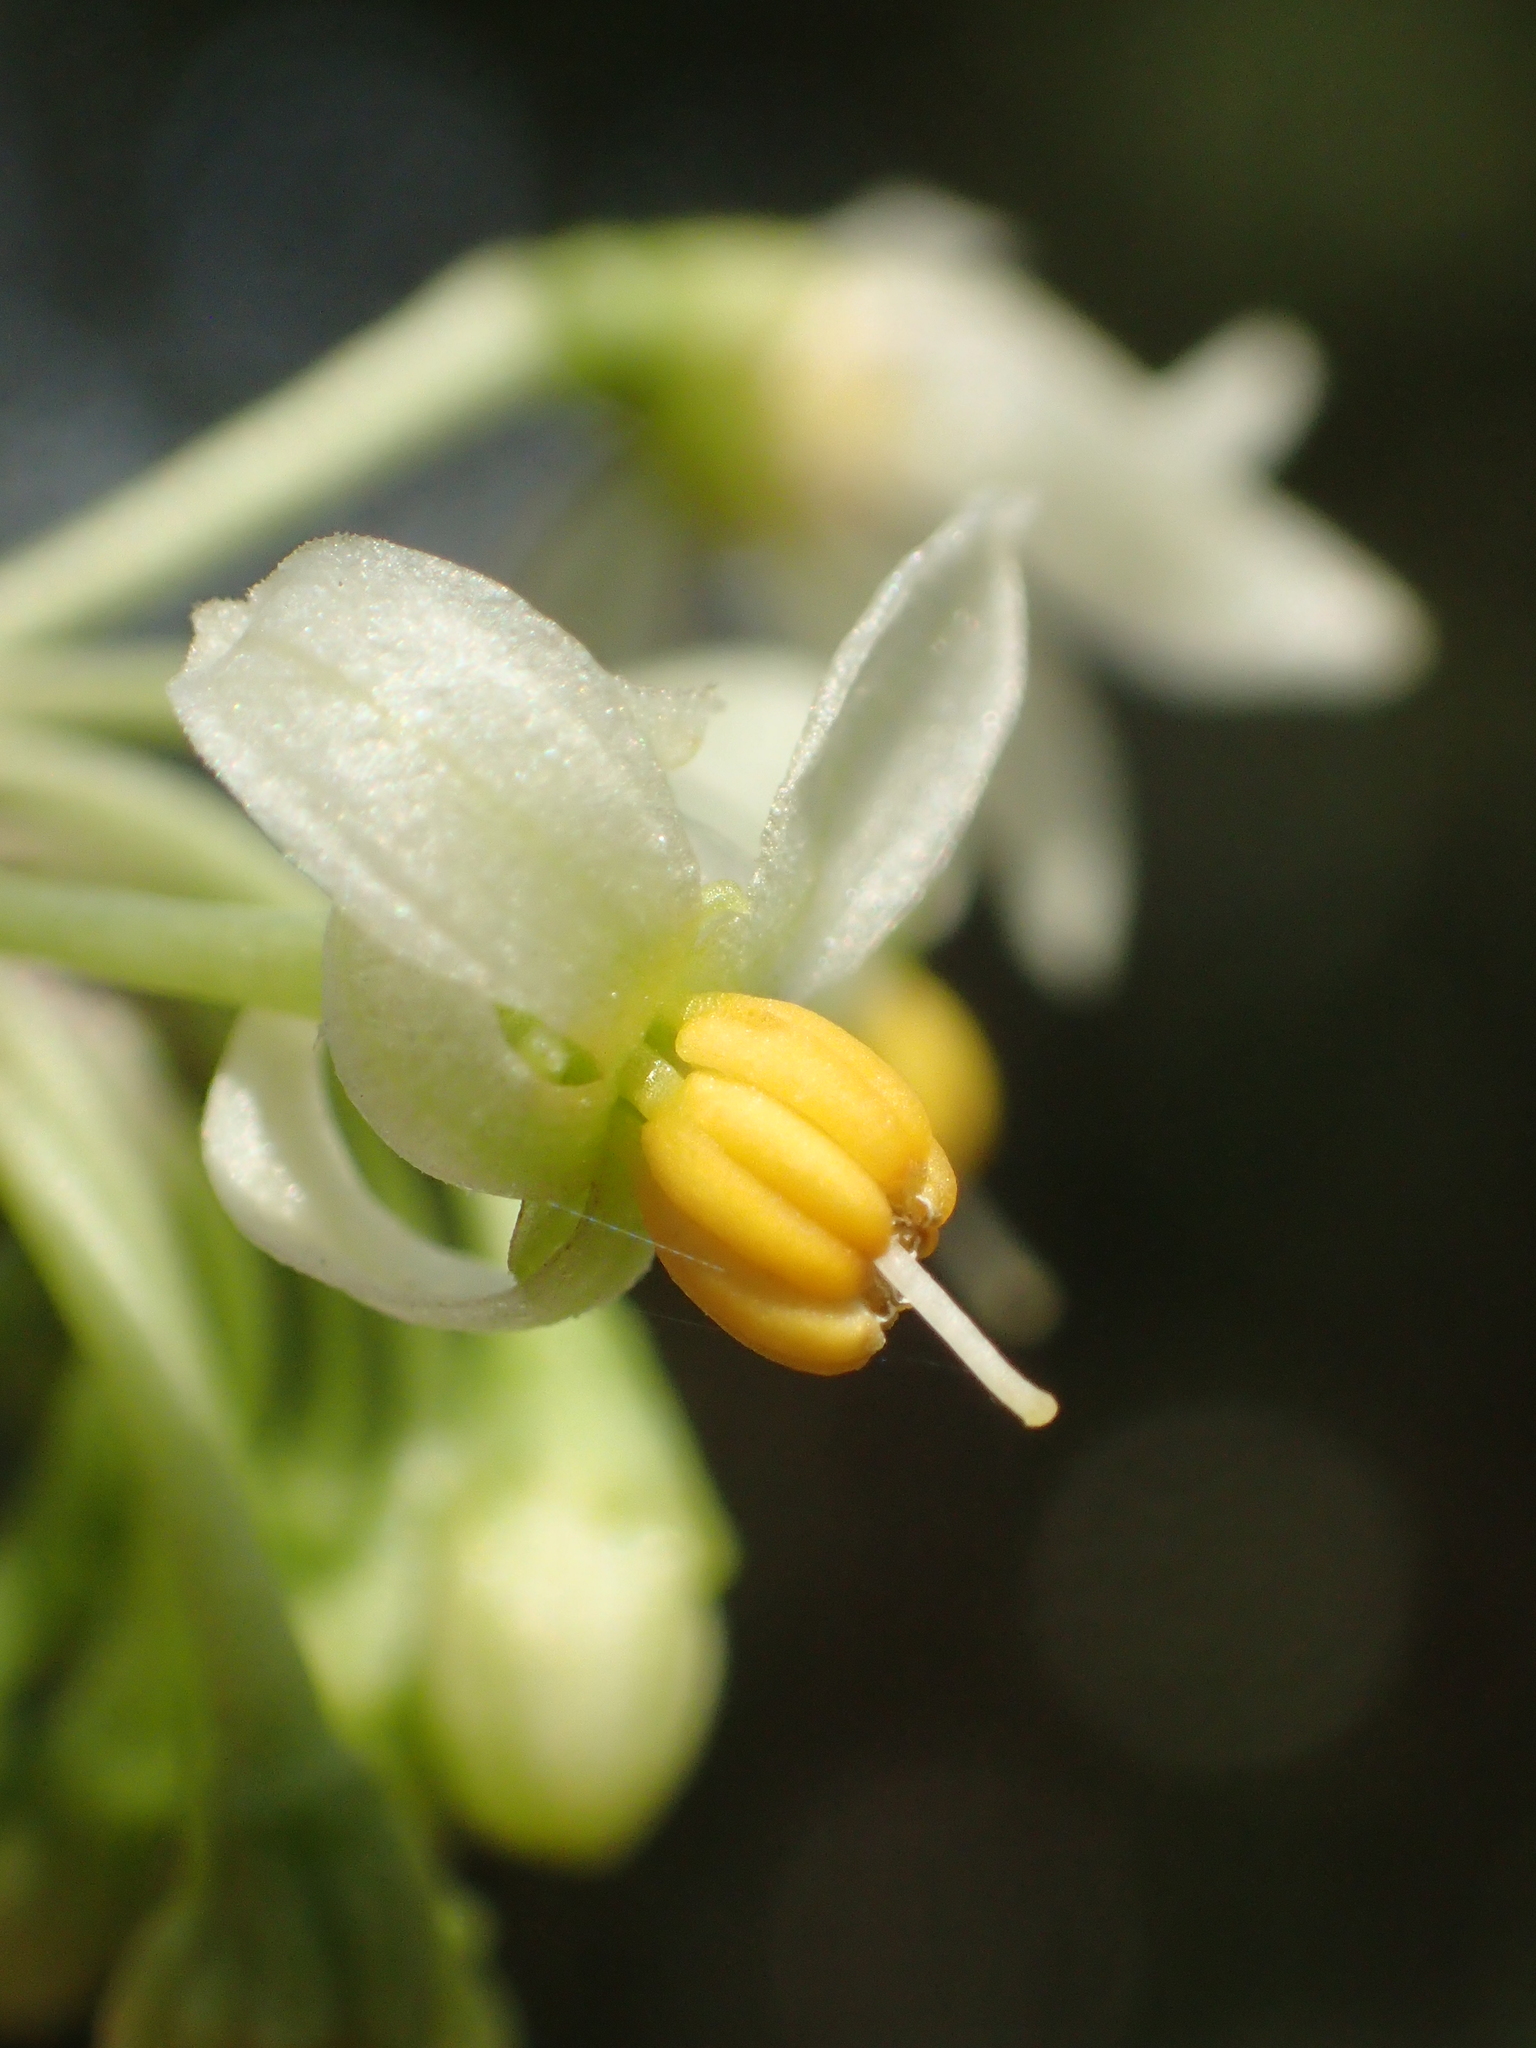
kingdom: Plantae
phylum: Tracheophyta
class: Magnoliopsida
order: Solanales
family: Solanaceae
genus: Solanum
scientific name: Solanum diphyllum
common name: Twoleaf nightshade
